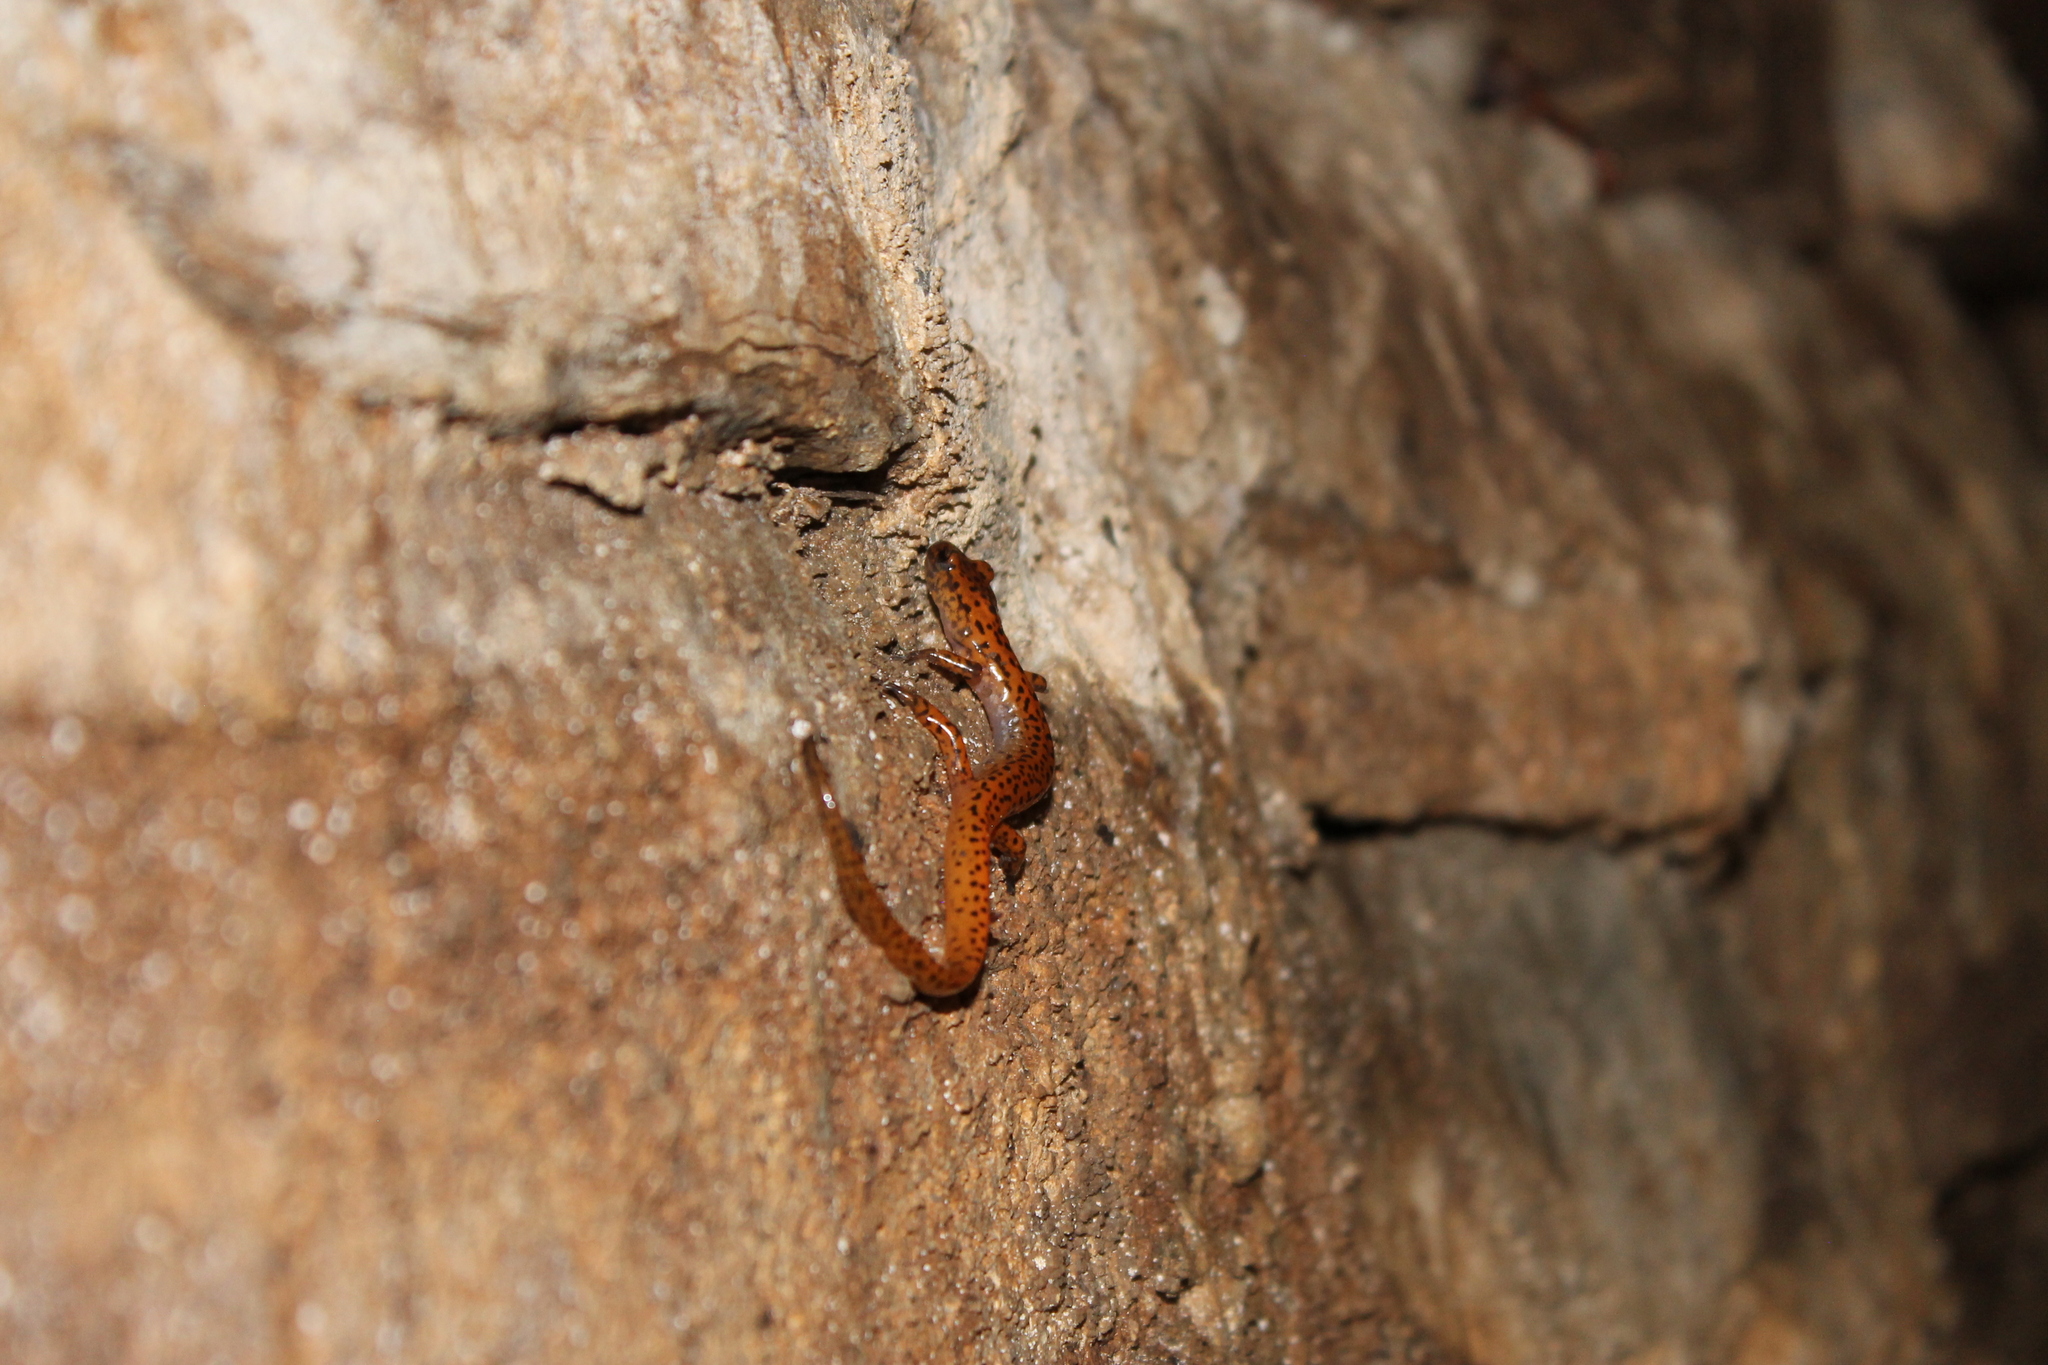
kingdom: Animalia
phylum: Chordata
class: Amphibia
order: Caudata
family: Plethodontidae
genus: Eurycea
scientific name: Eurycea lucifuga
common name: Cave salamander
